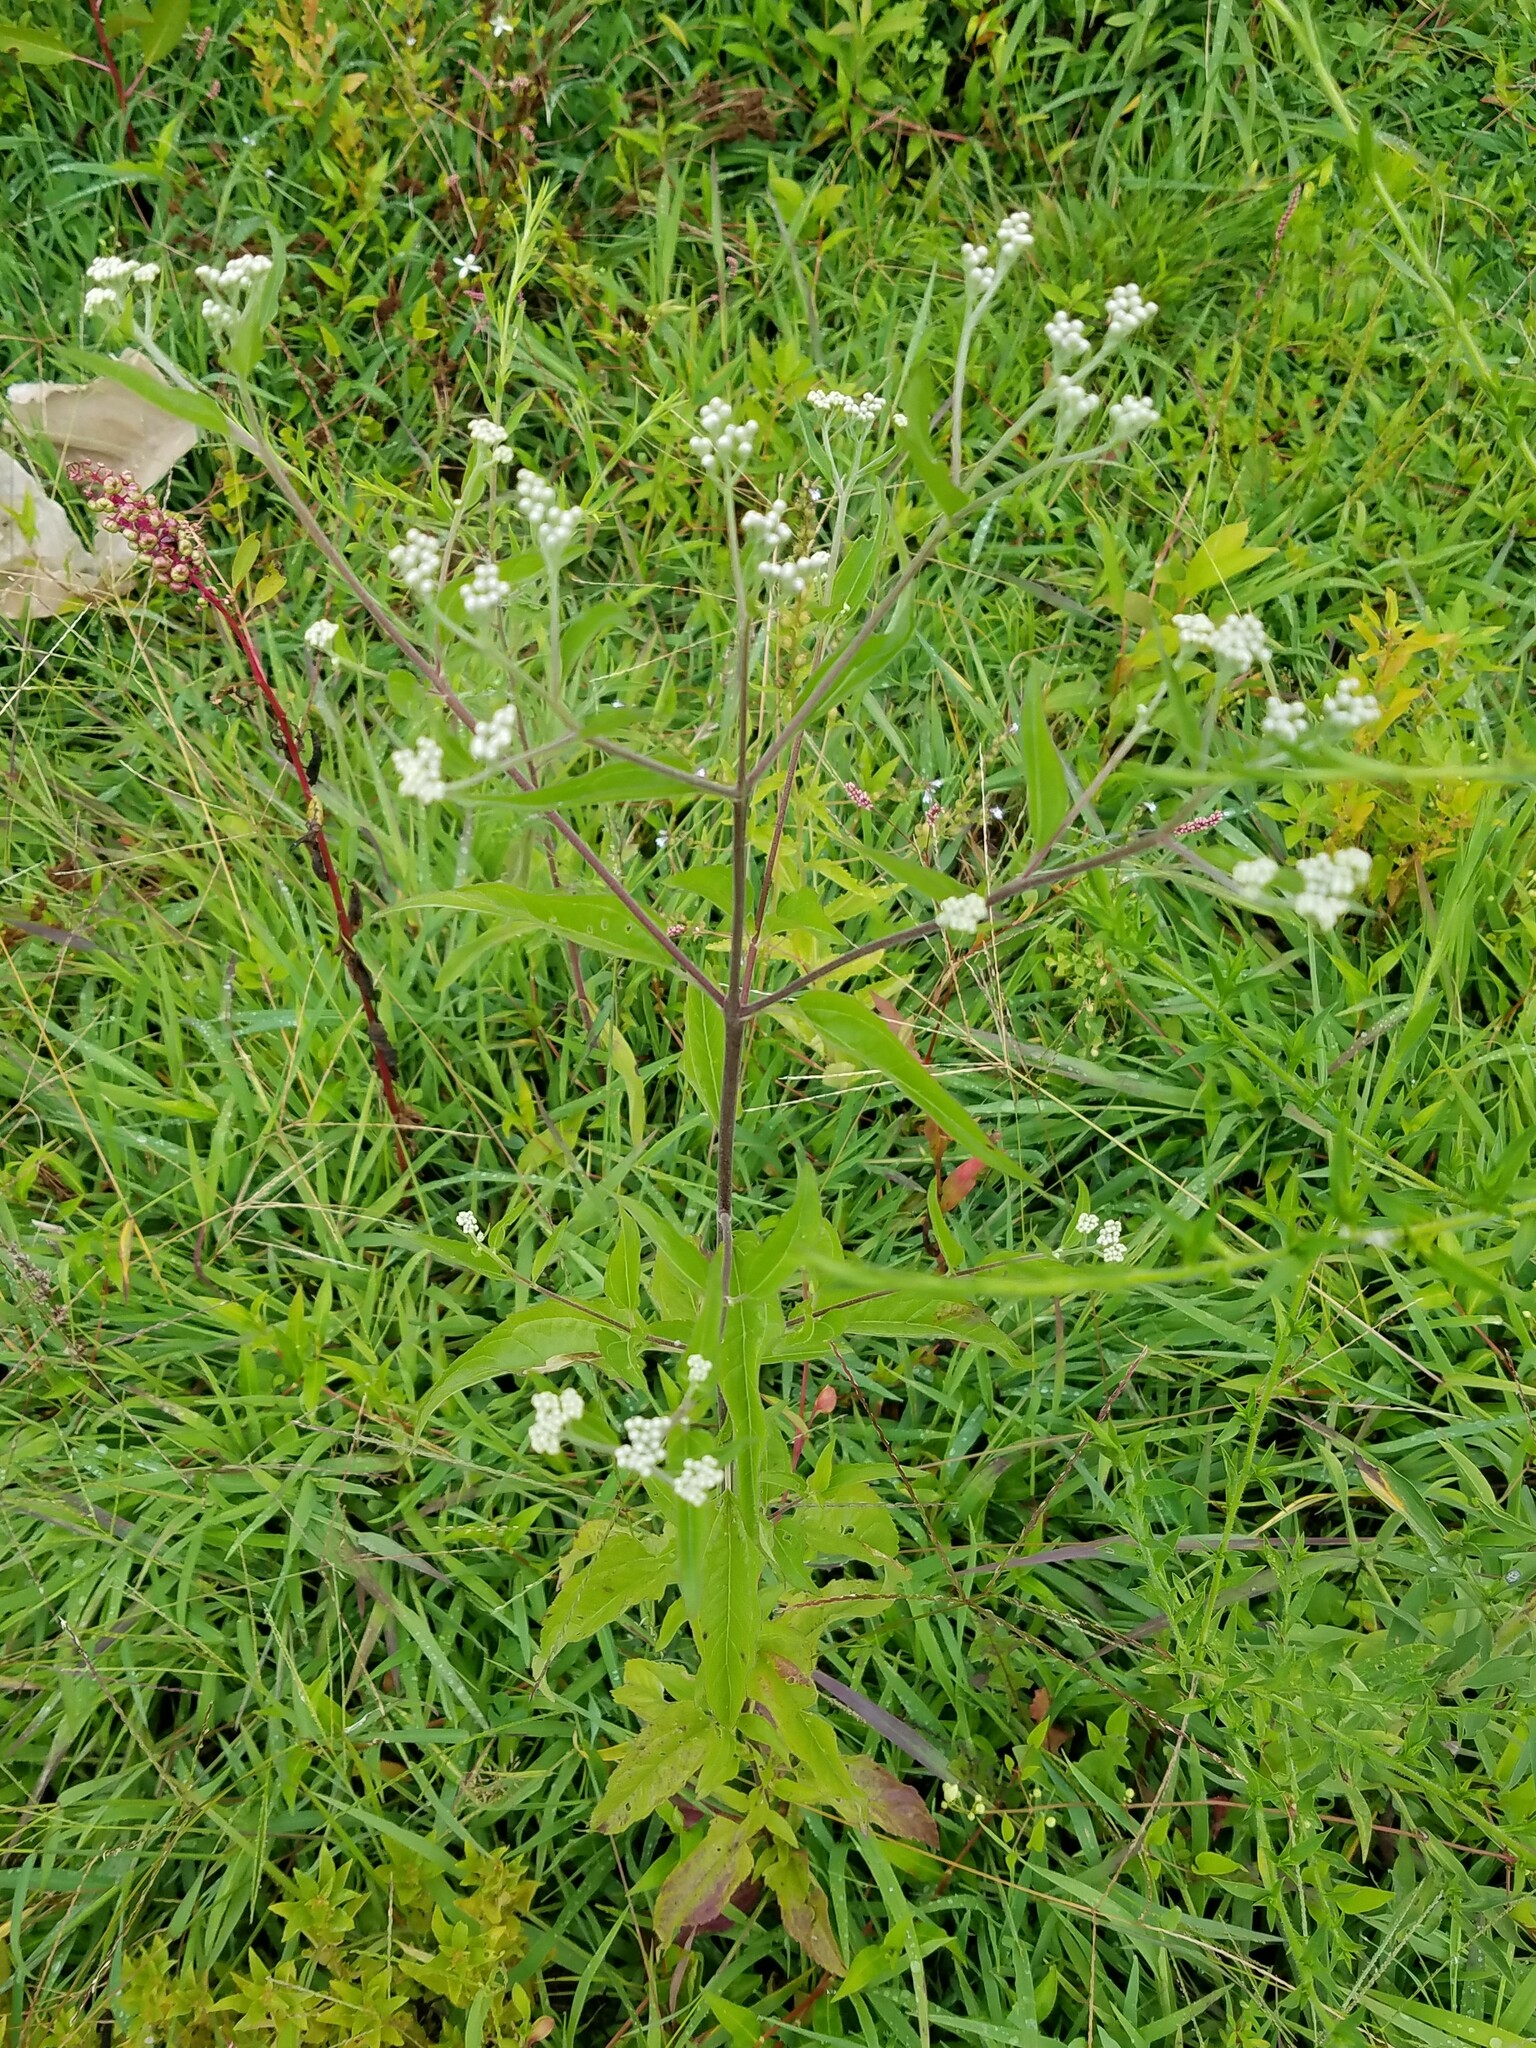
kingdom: Plantae
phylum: Tracheophyta
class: Magnoliopsida
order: Asterales
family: Asteraceae
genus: Eupatorium
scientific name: Eupatorium serotinum
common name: Late boneset
